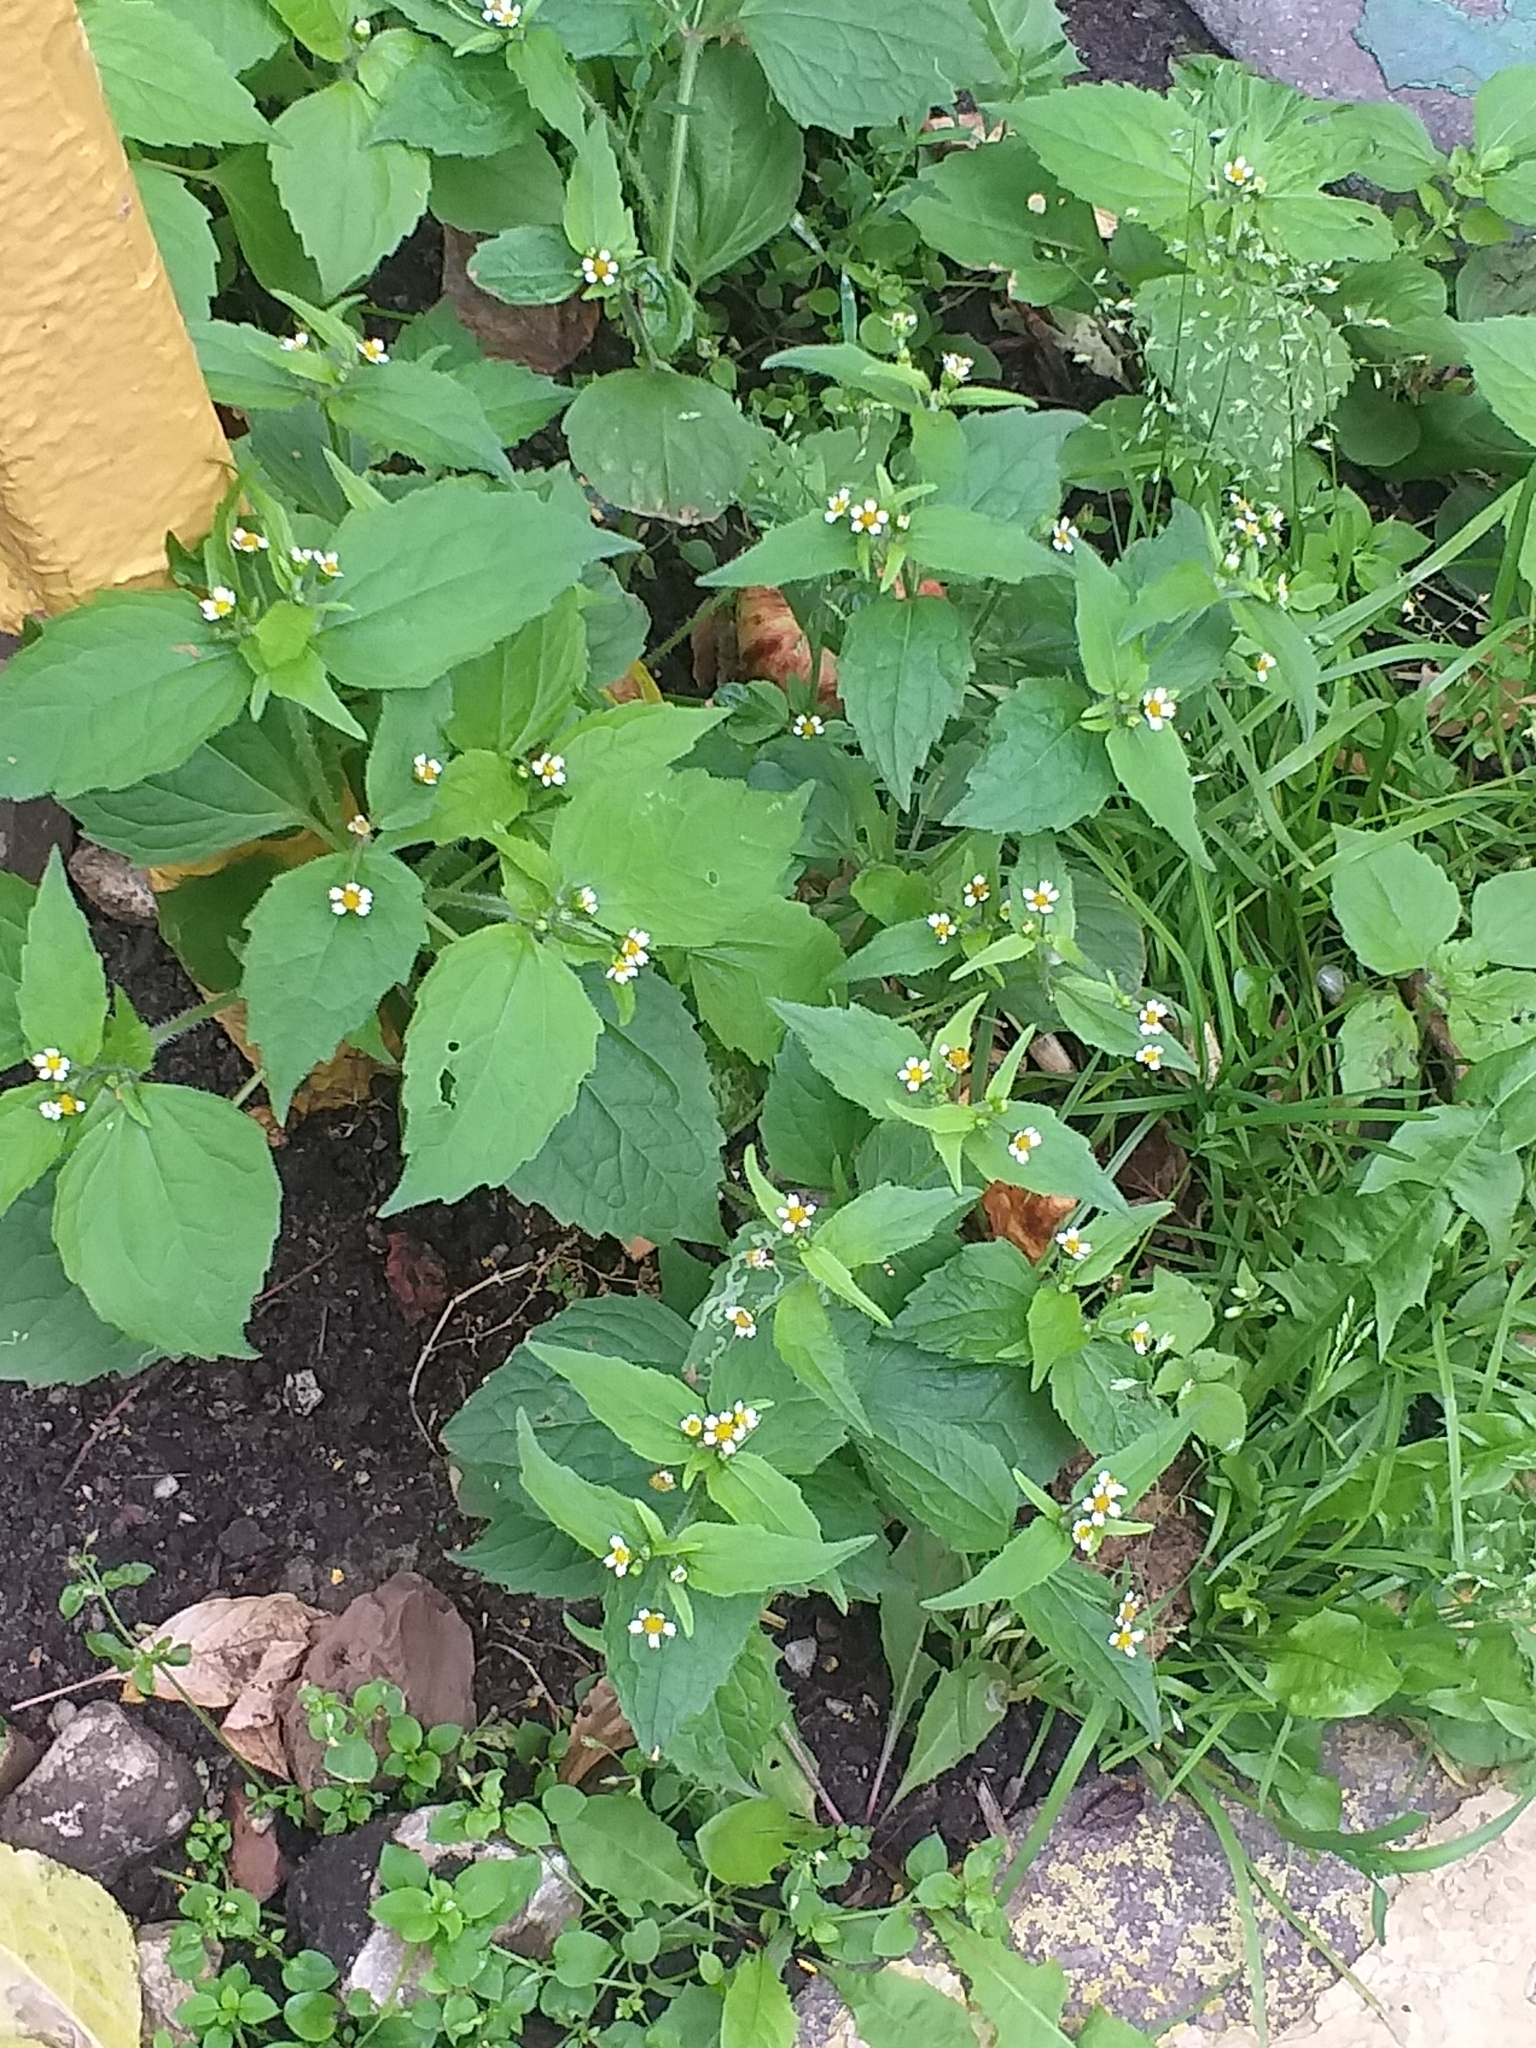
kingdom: Plantae
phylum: Tracheophyta
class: Magnoliopsida
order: Asterales
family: Asteraceae
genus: Galinsoga
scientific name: Galinsoga quadriradiata
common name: Shaggy soldier
